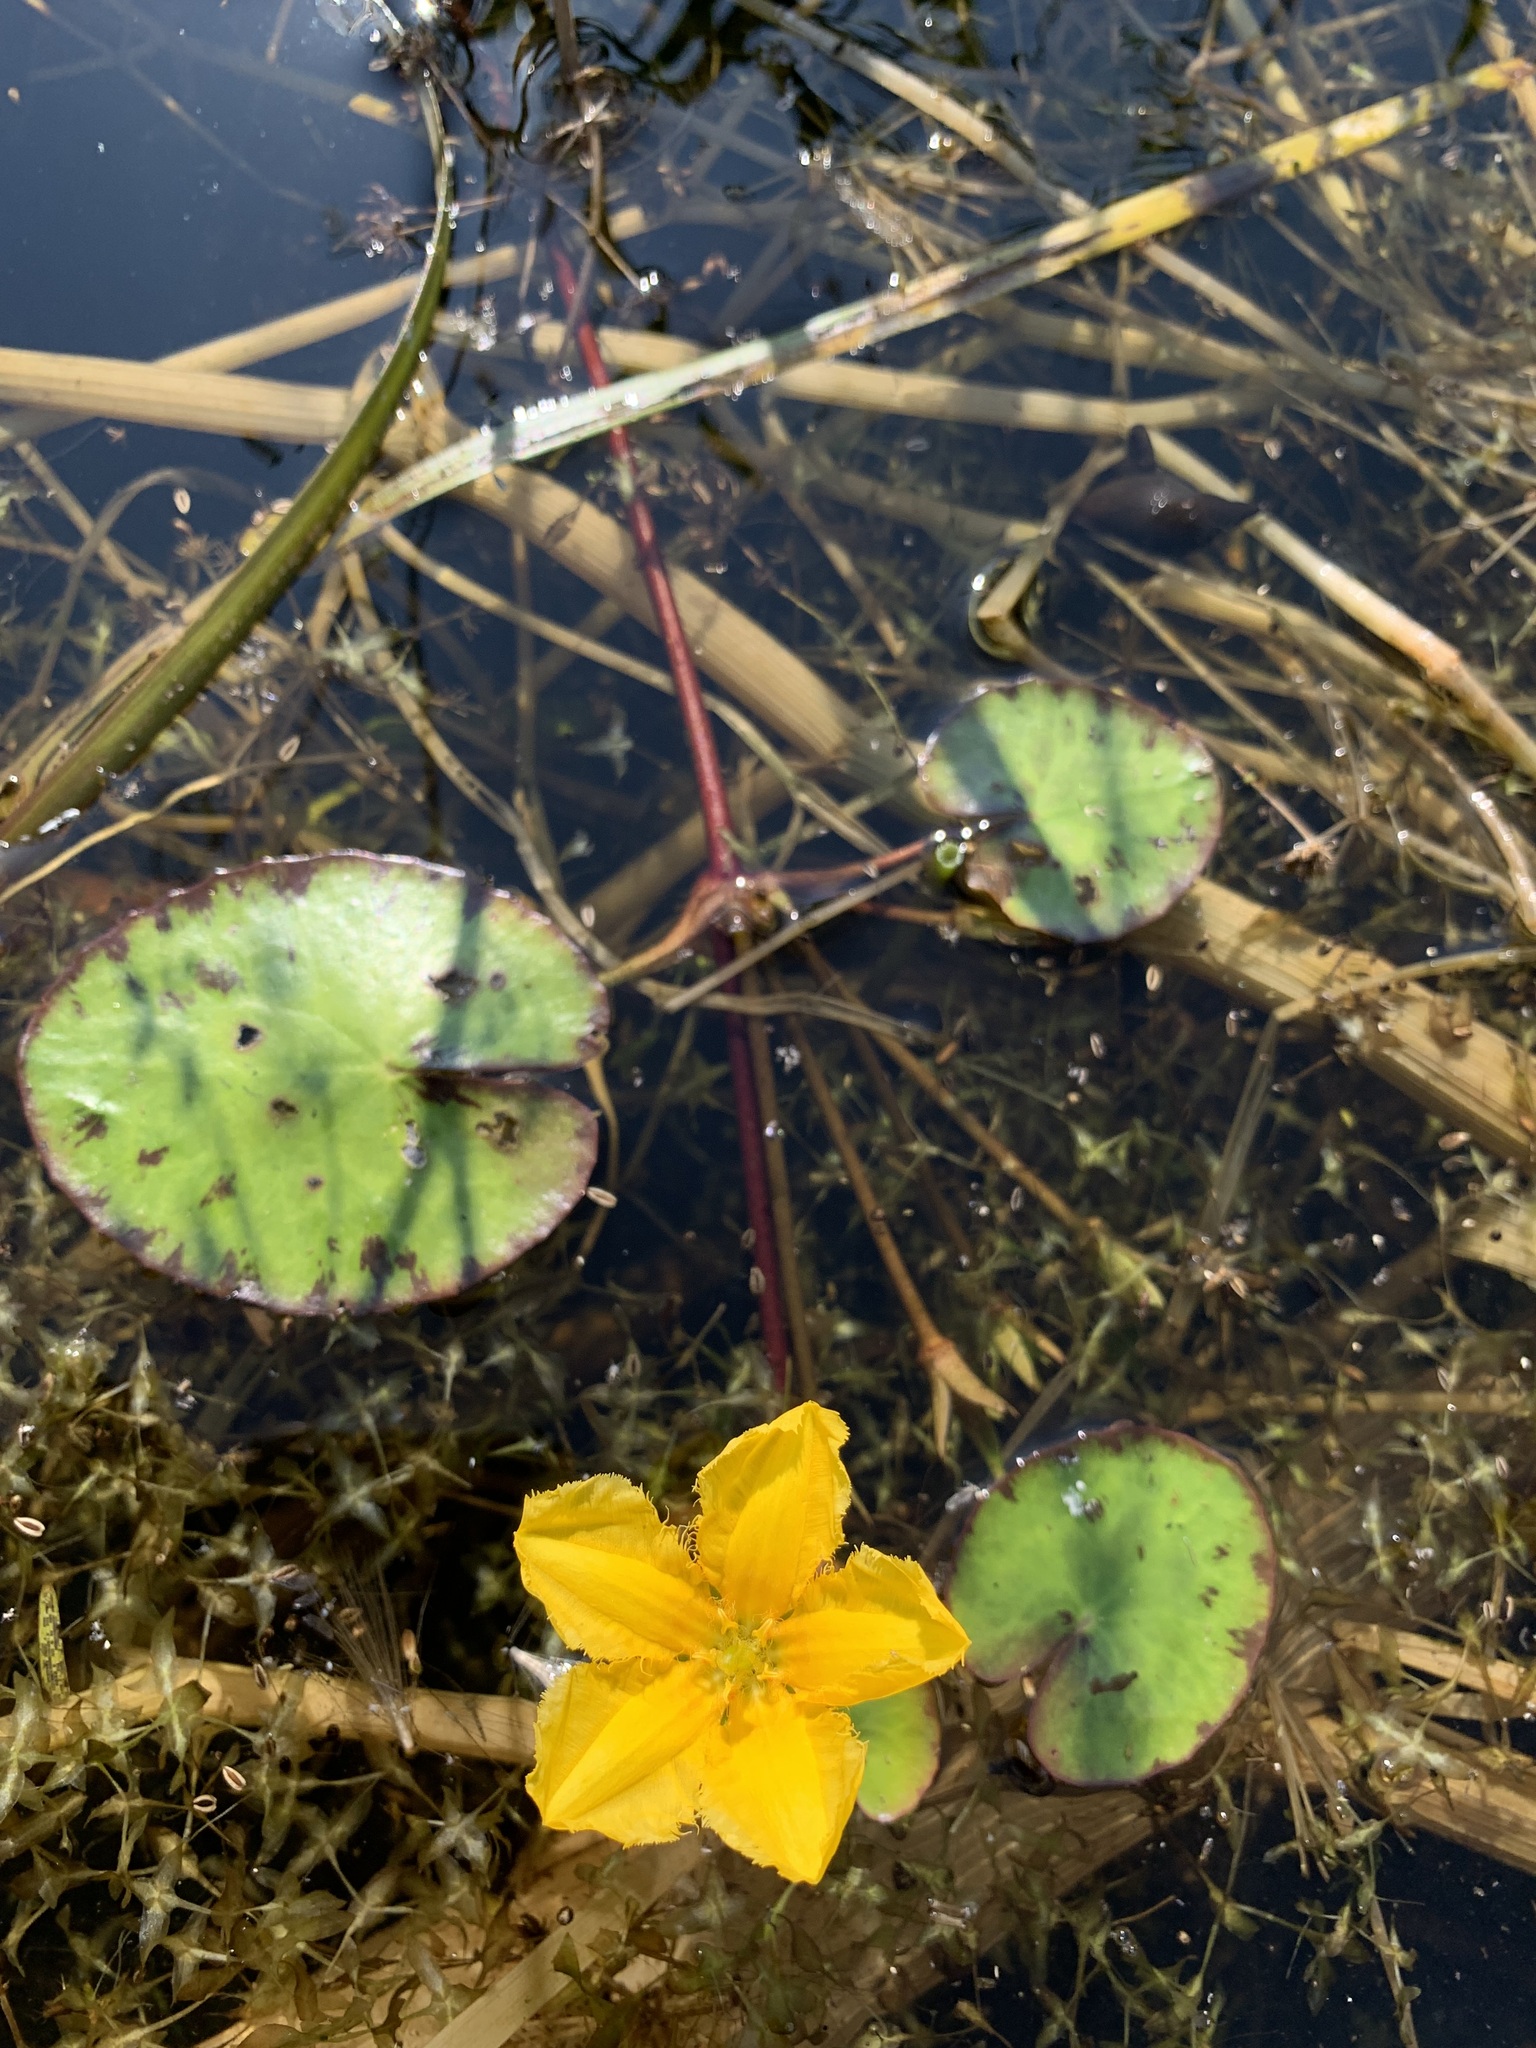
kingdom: Plantae
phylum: Tracheophyta
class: Magnoliopsida
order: Asterales
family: Menyanthaceae
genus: Nymphoides
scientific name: Nymphoides peltata
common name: Fringed water-lily
